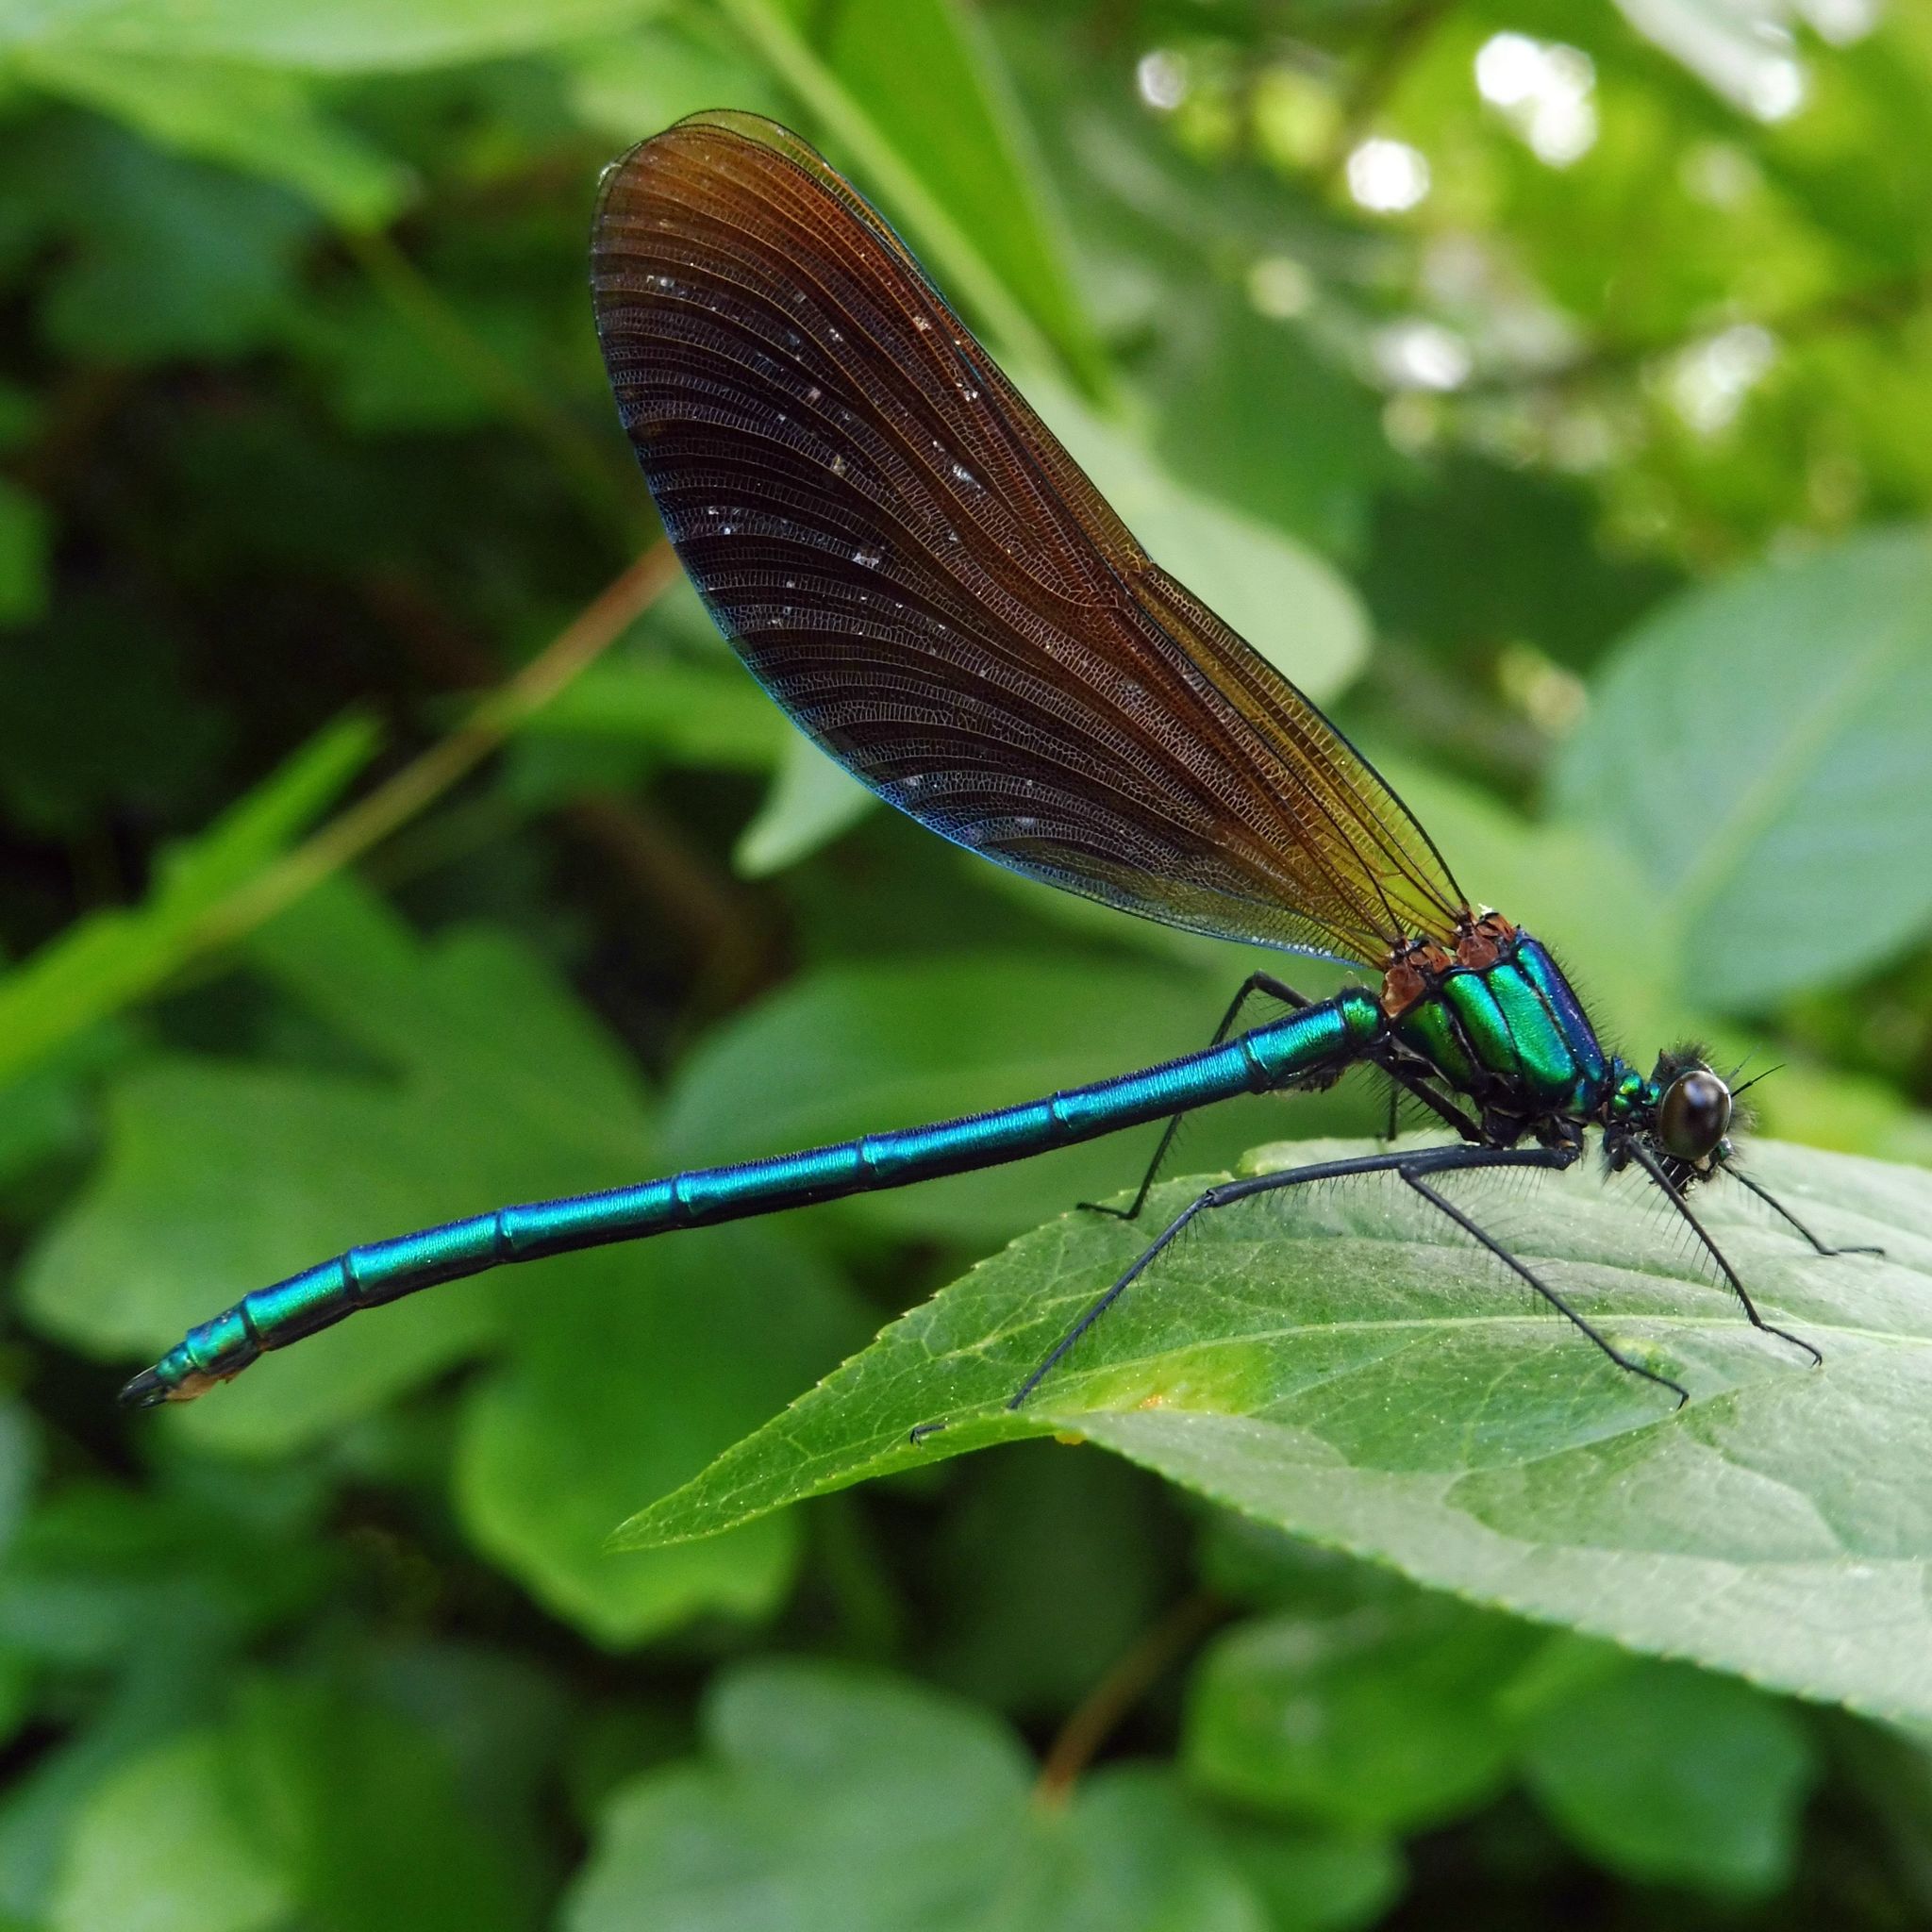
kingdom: Animalia
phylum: Arthropoda
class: Insecta
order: Odonata
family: Calopterygidae
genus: Calopteryx
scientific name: Calopteryx virgo
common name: Beautiful demoiselle
